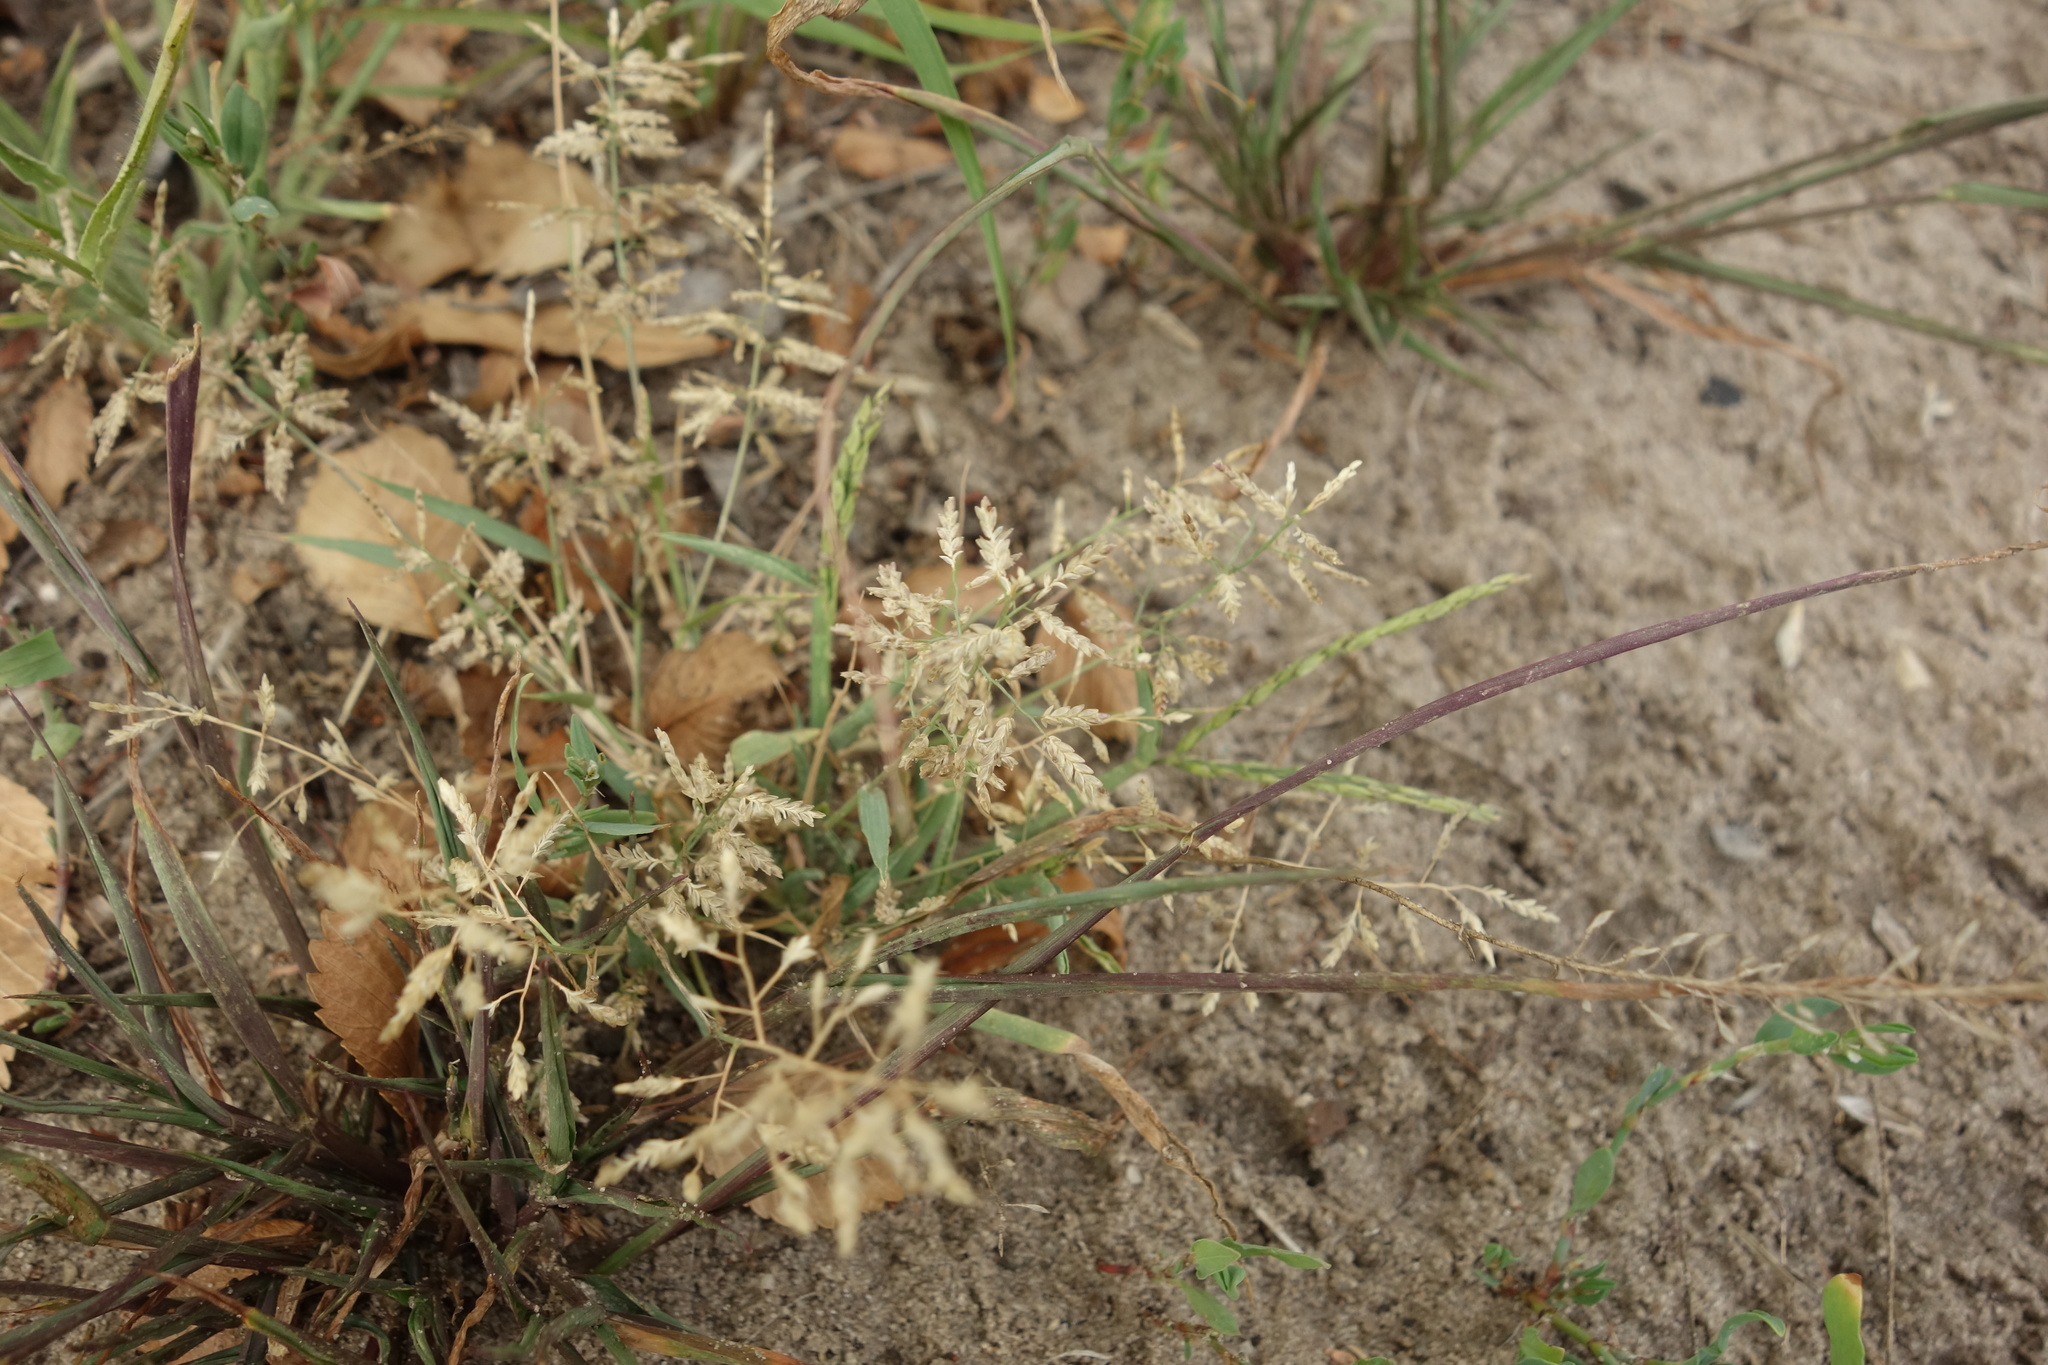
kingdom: Plantae
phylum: Tracheophyta
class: Liliopsida
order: Poales
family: Poaceae
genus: Eragrostis
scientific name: Eragrostis minor
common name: Small love-grass
